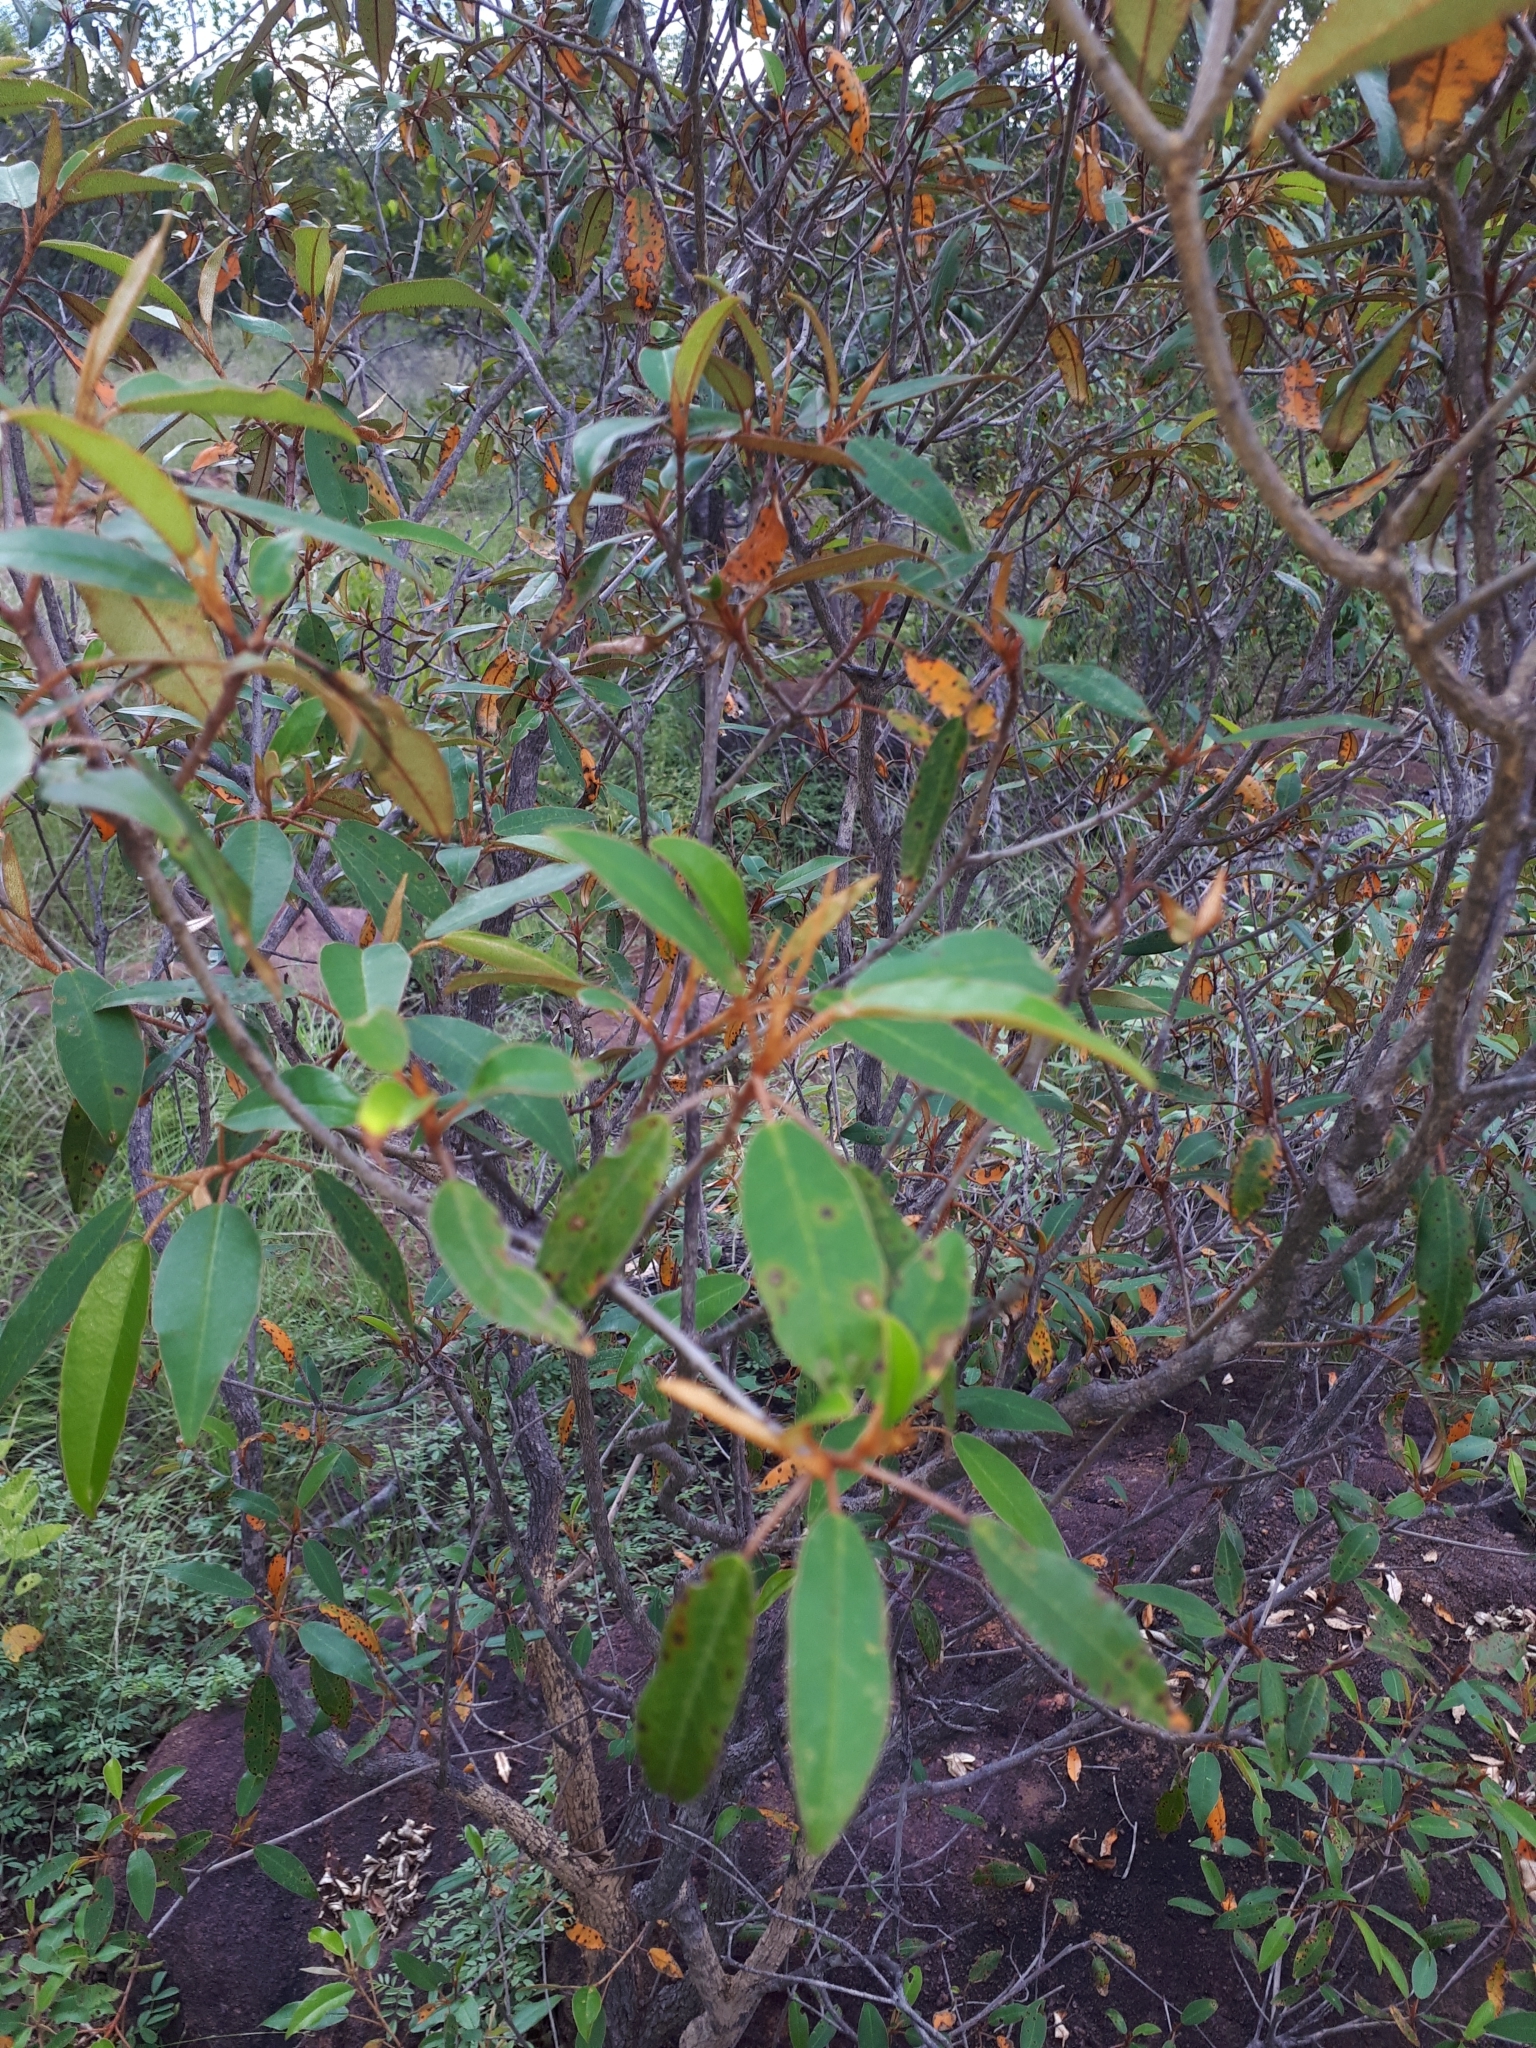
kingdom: Plantae
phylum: Tracheophyta
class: Magnoliopsida
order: Malpighiales
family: Euphorbiaceae
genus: Croton
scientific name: Croton gratissimus
